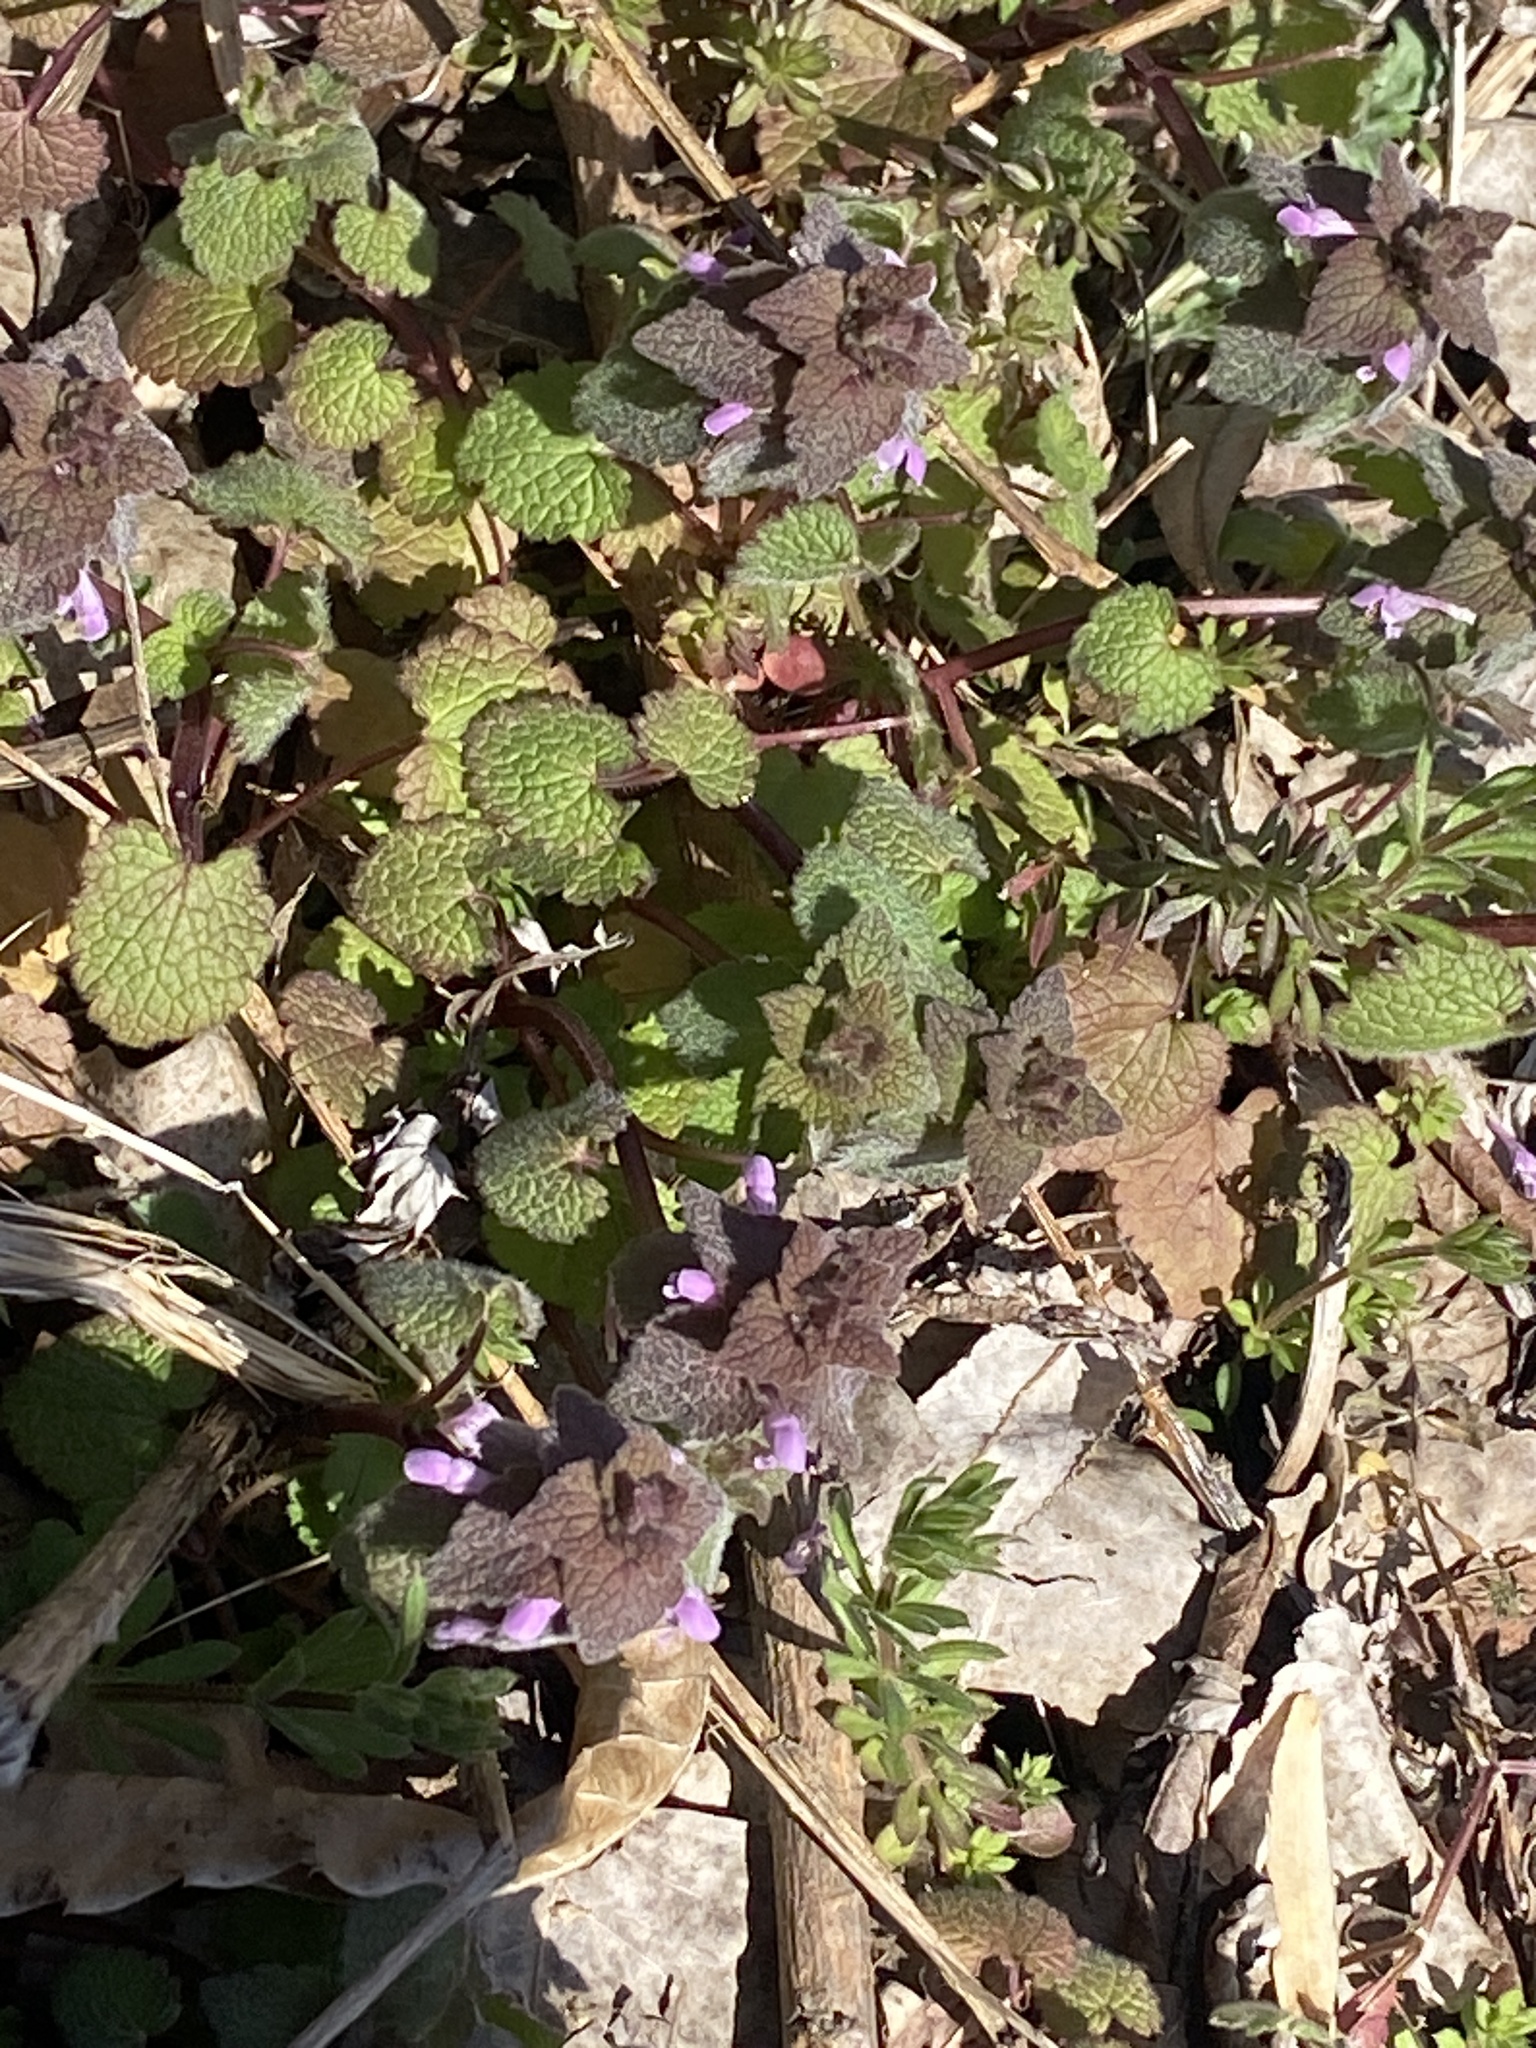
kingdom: Plantae
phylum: Tracheophyta
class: Magnoliopsida
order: Lamiales
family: Lamiaceae
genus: Lamium
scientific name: Lamium purpureum
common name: Red dead-nettle
